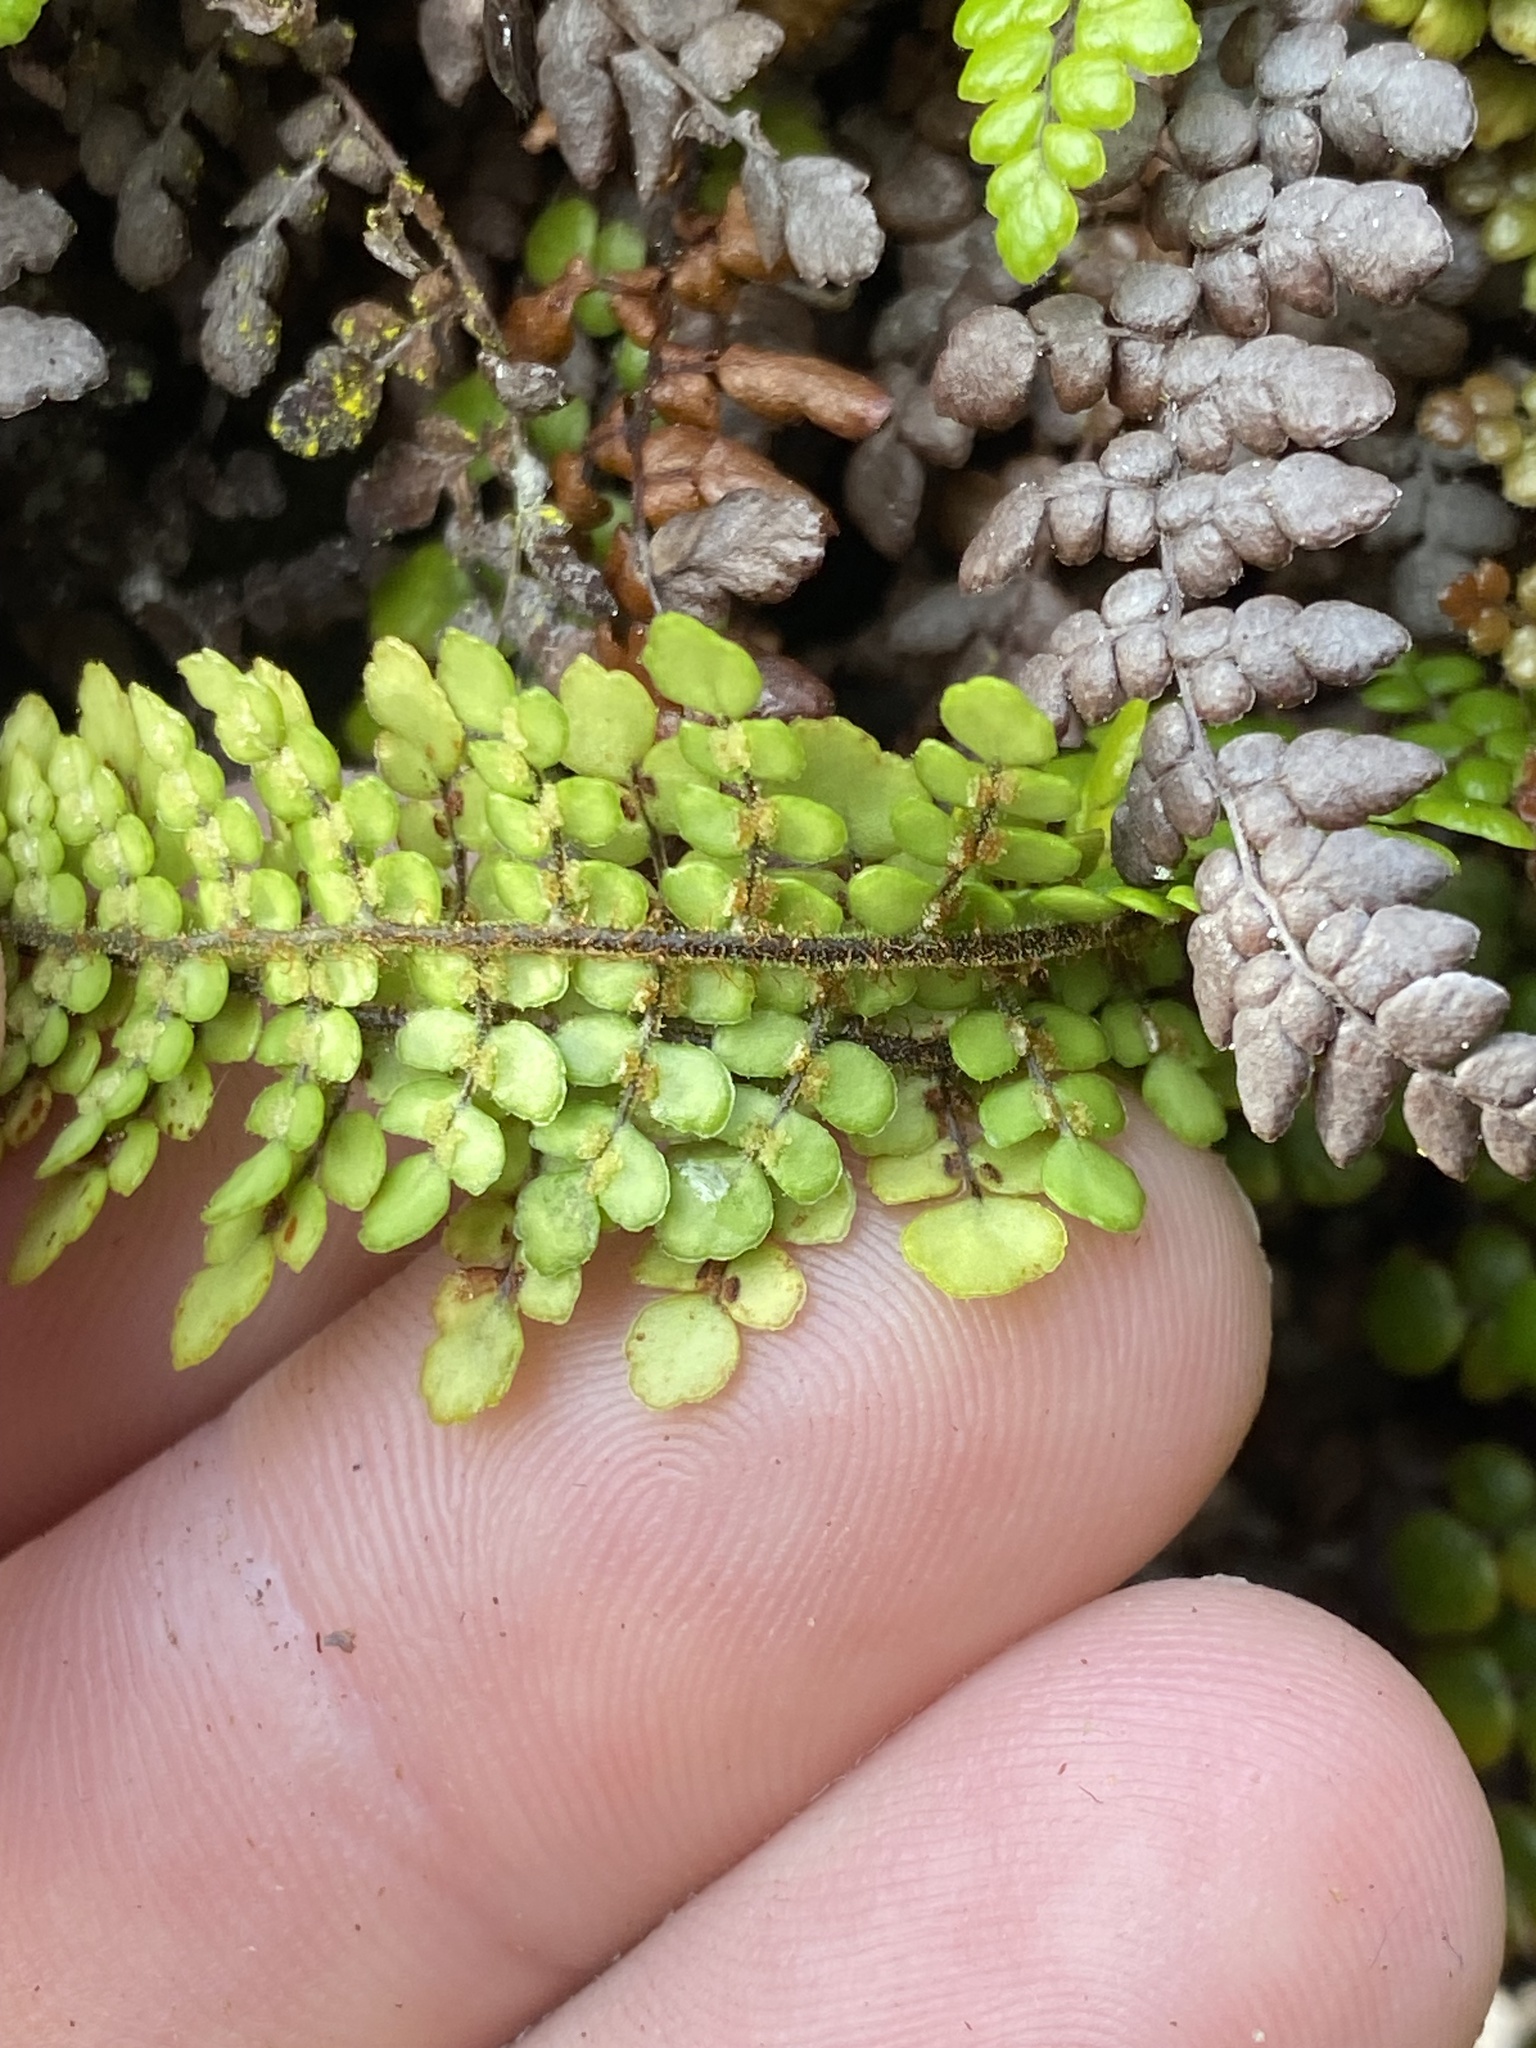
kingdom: Plantae
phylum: Tracheophyta
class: Polypodiopsida
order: Polypodiales
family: Blechnaceae
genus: Sadleria
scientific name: Sadleria unisora
